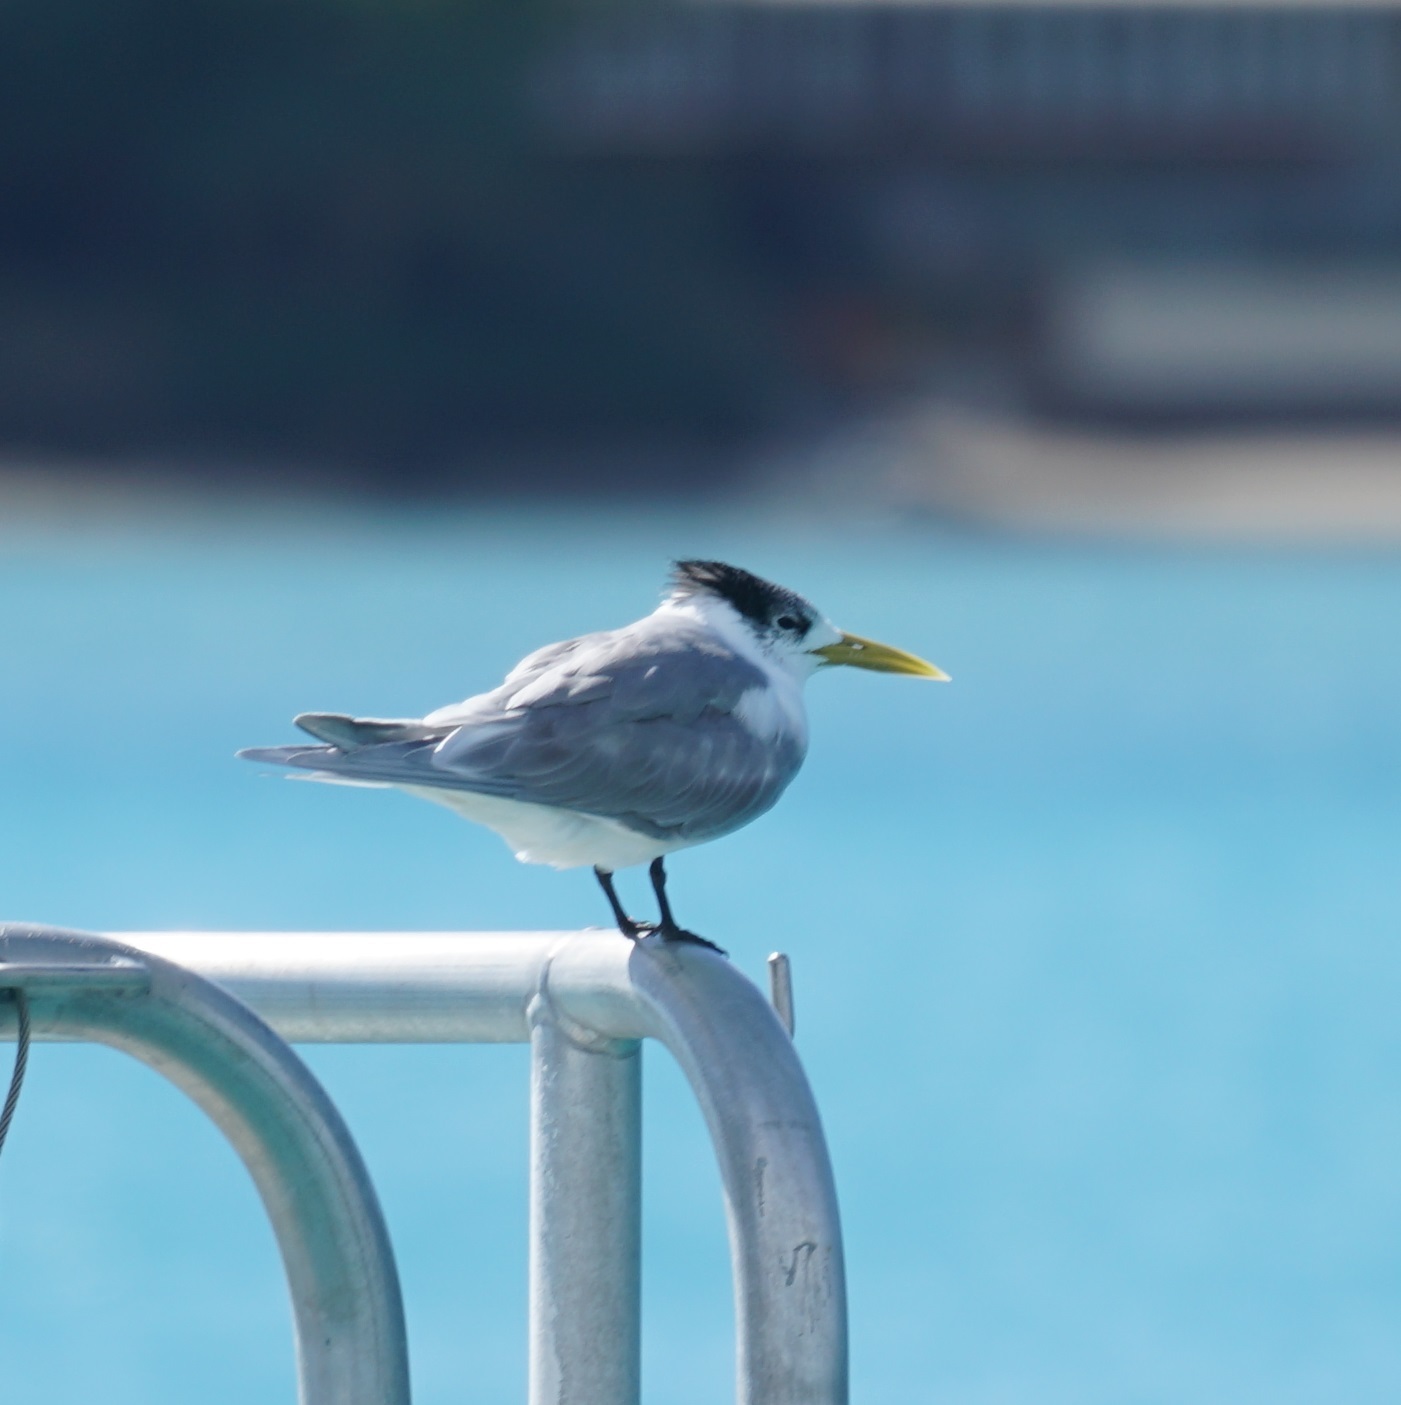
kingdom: Animalia
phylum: Chordata
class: Aves
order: Charadriiformes
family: Laridae
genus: Thalasseus
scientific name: Thalasseus bergii
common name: Greater crested tern
